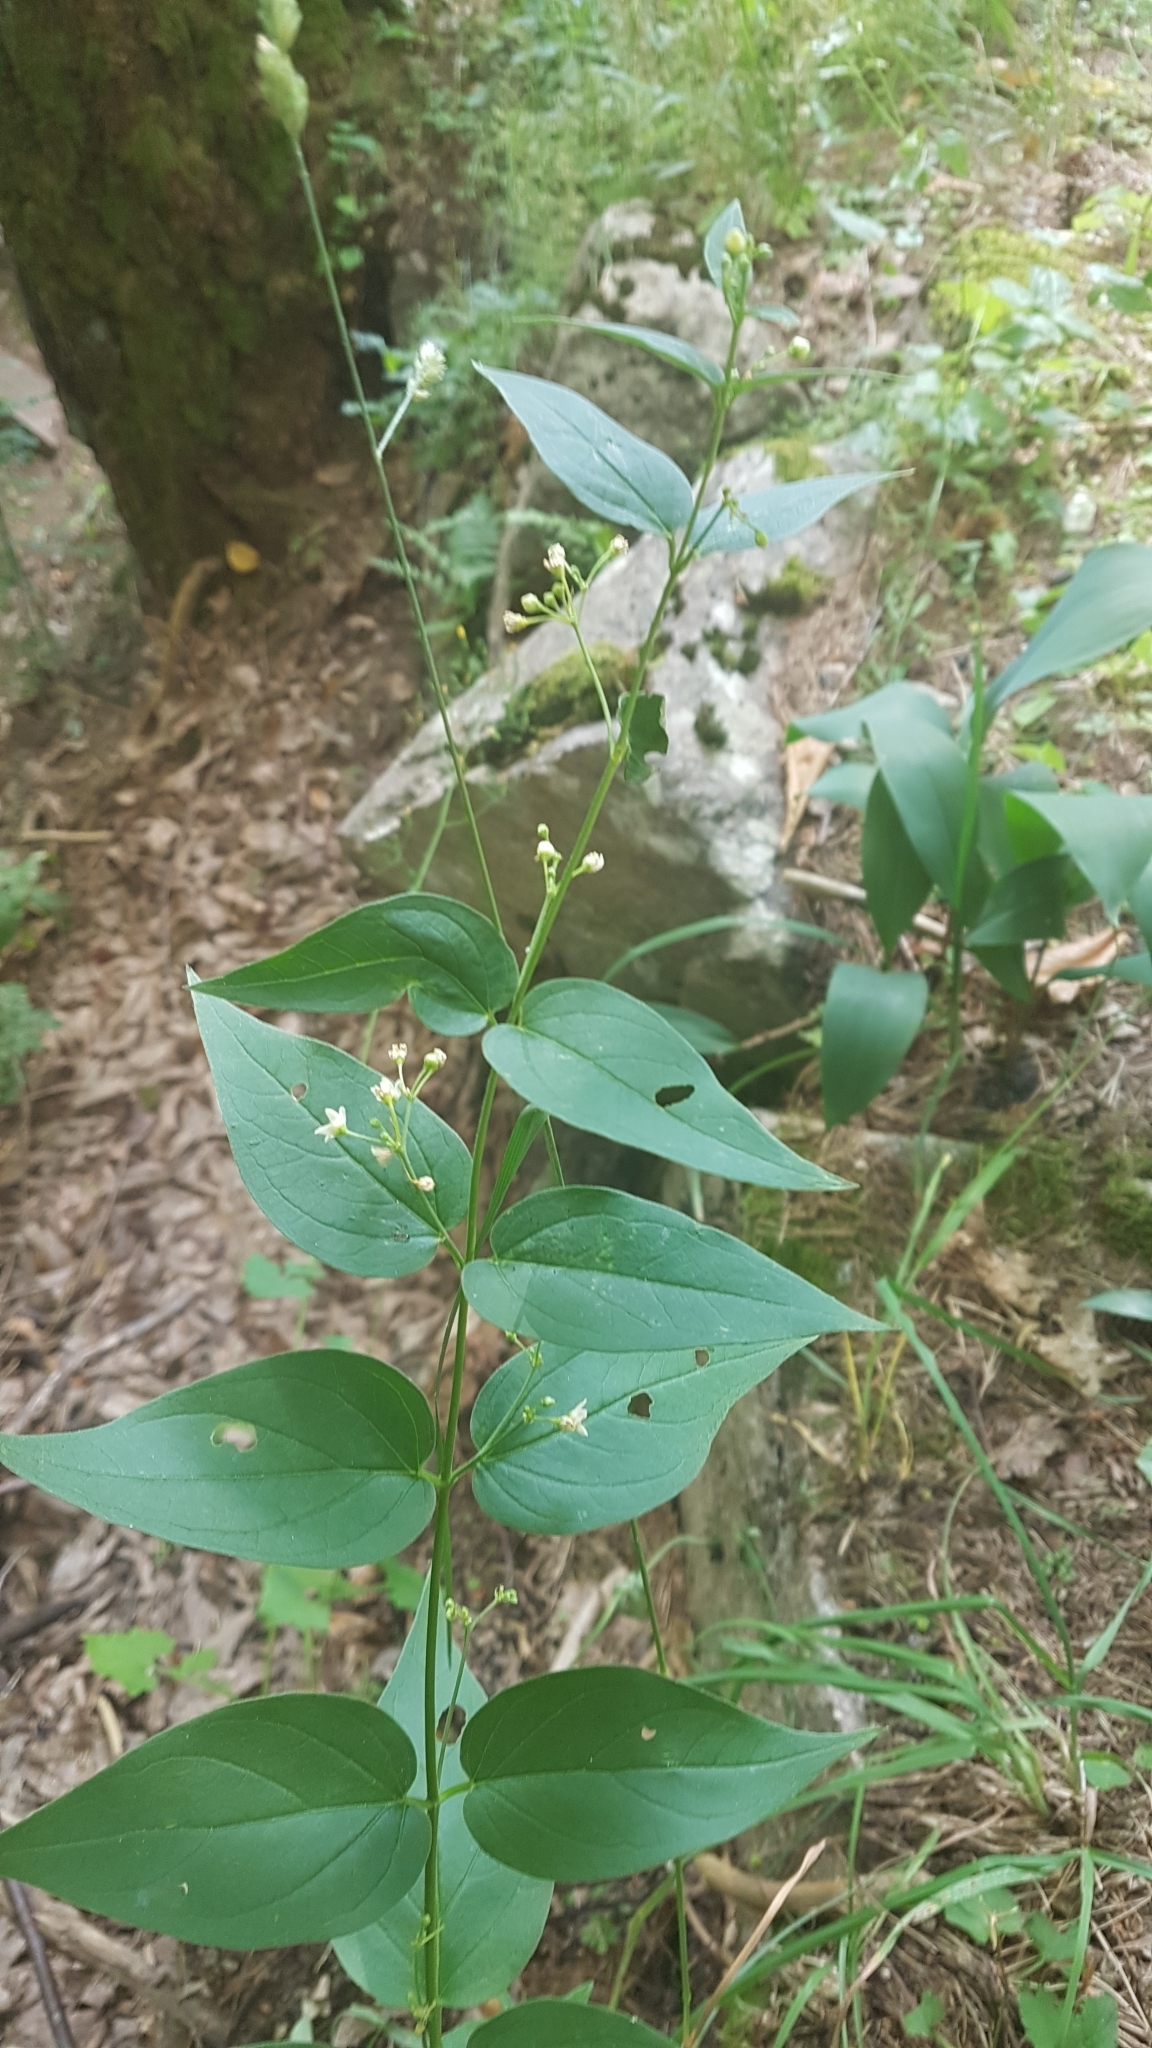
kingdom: Plantae
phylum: Tracheophyta
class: Magnoliopsida
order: Gentianales
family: Apocynaceae
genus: Vincetoxicum
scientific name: Vincetoxicum hirundinaria
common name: White swallowwort
